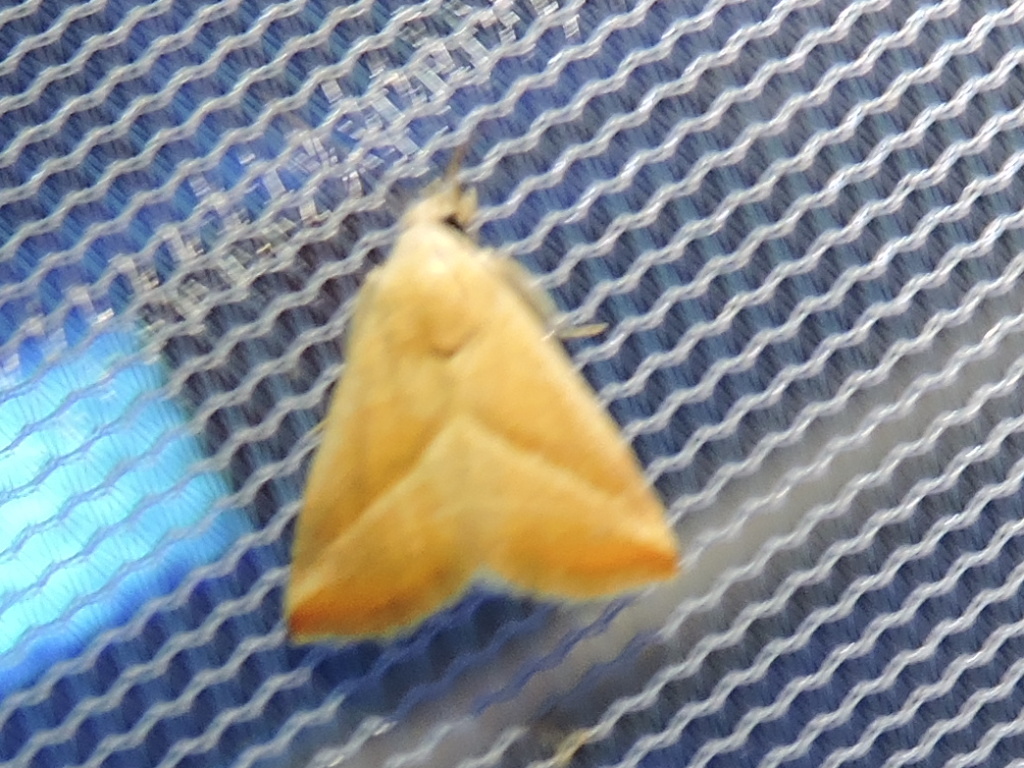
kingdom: Animalia
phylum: Arthropoda
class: Insecta
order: Lepidoptera
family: Noctuidae
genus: Eublemma
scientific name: Eublemma recta
